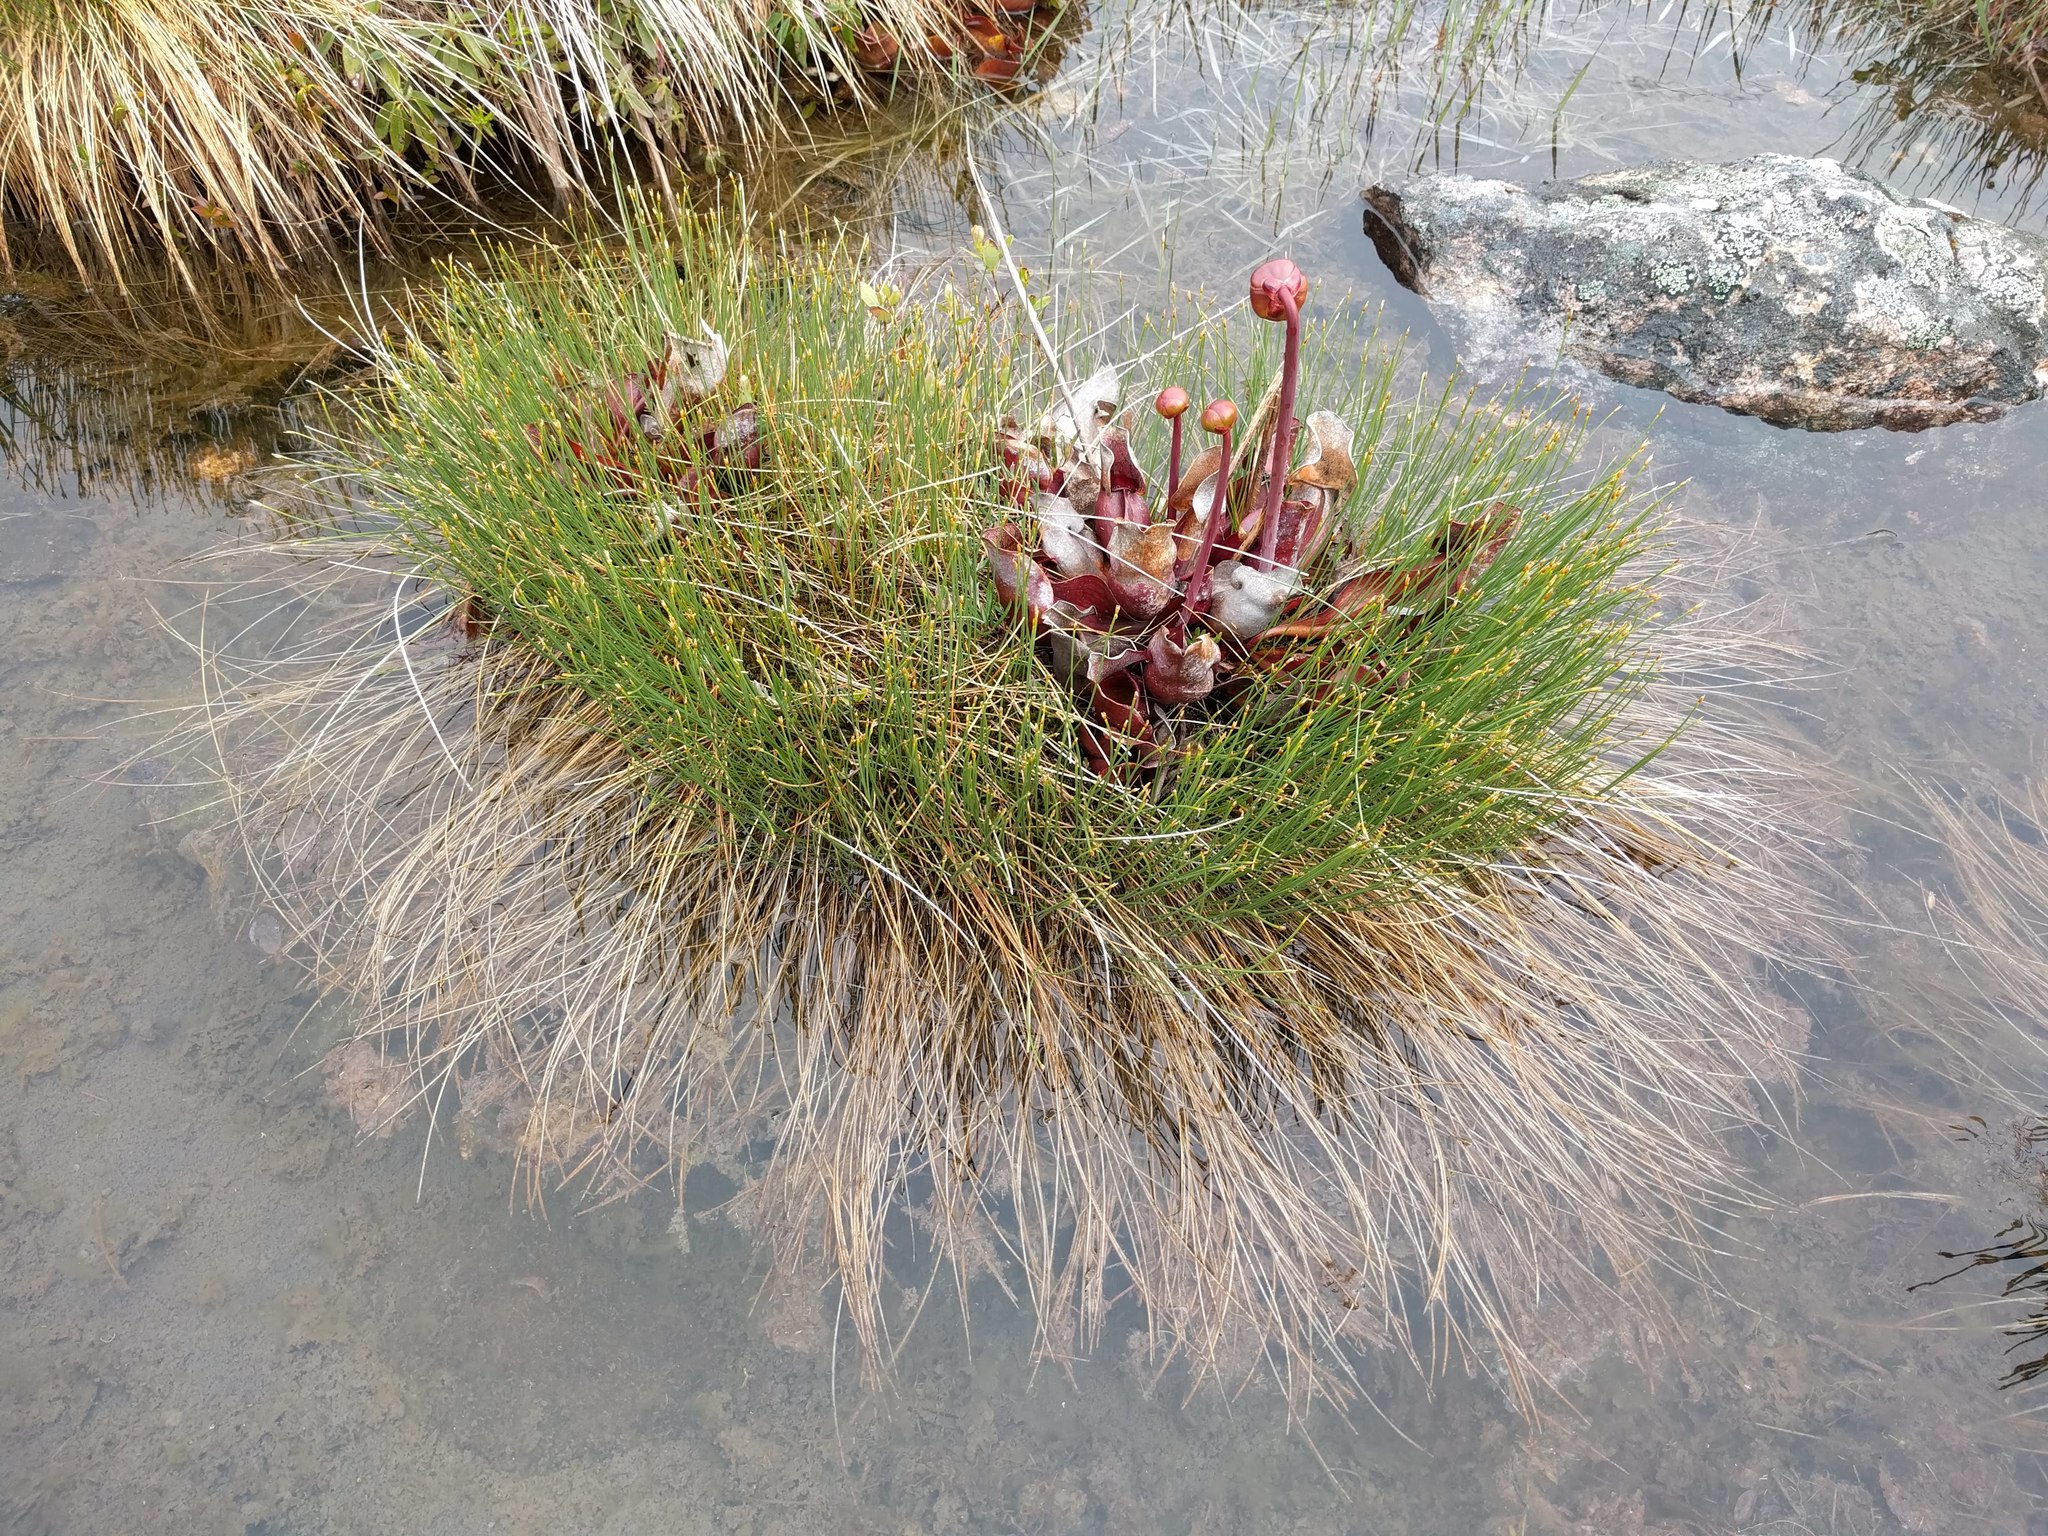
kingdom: Plantae
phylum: Tracheophyta
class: Magnoliopsida
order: Ericales
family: Sarraceniaceae
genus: Sarracenia
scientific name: Sarracenia purpurea
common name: Pitcherplant
